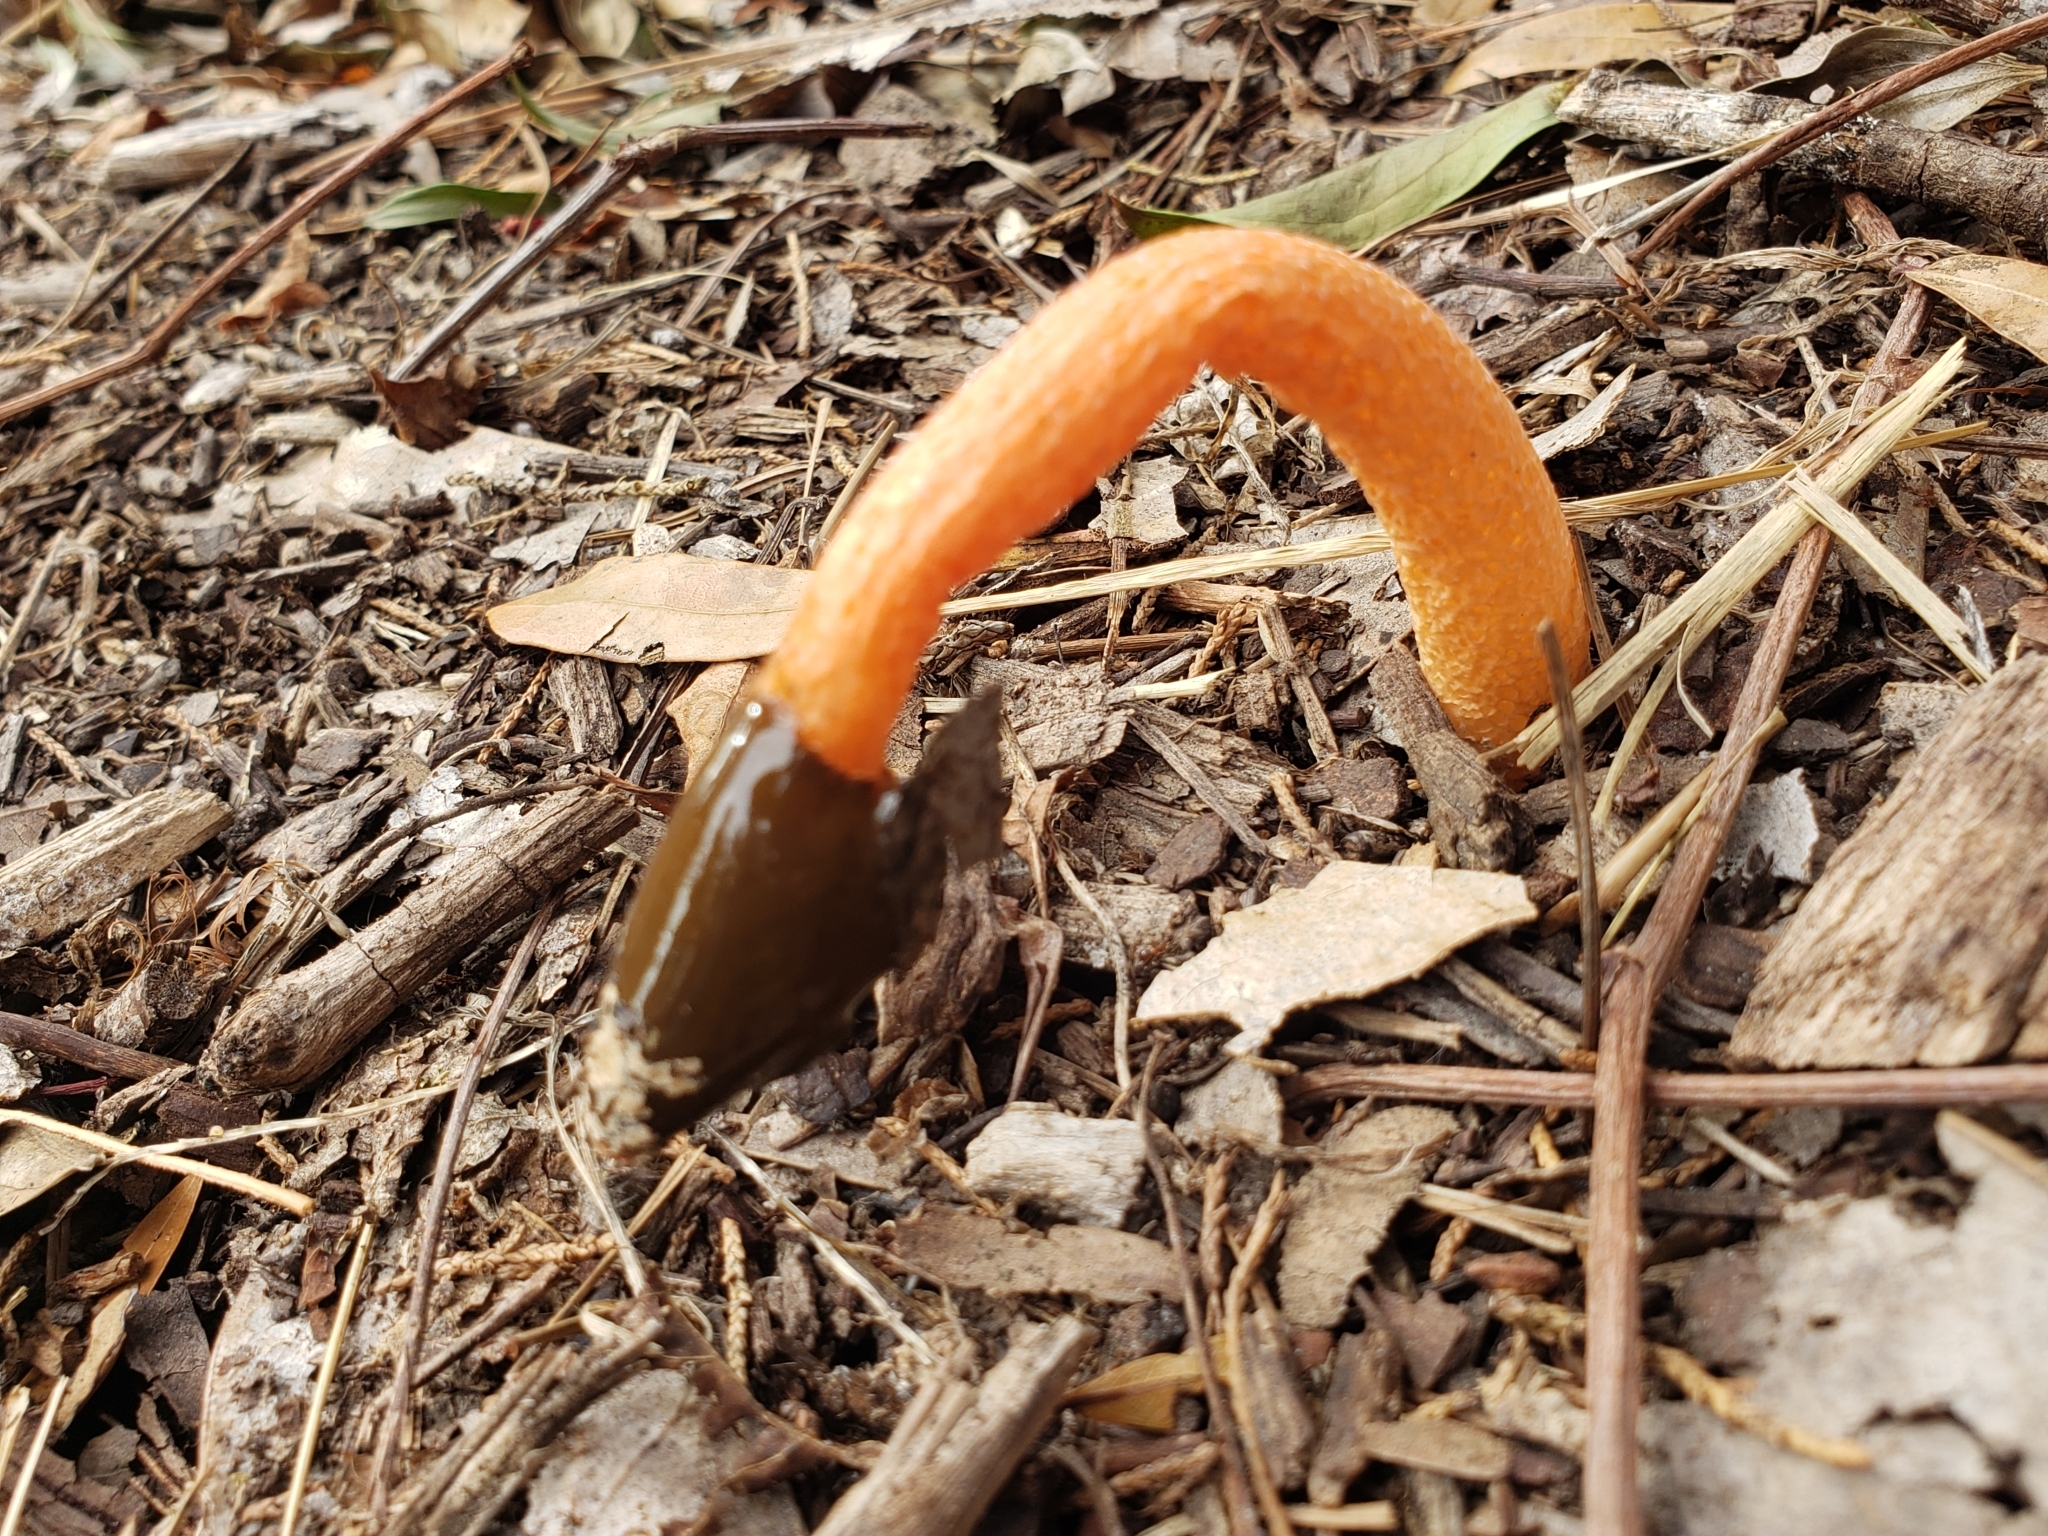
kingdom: Fungi
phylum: Basidiomycota
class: Agaricomycetes
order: Phallales
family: Phallaceae
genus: Phallus
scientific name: Phallus rugulosus
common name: Wrinkly stinkhorn
